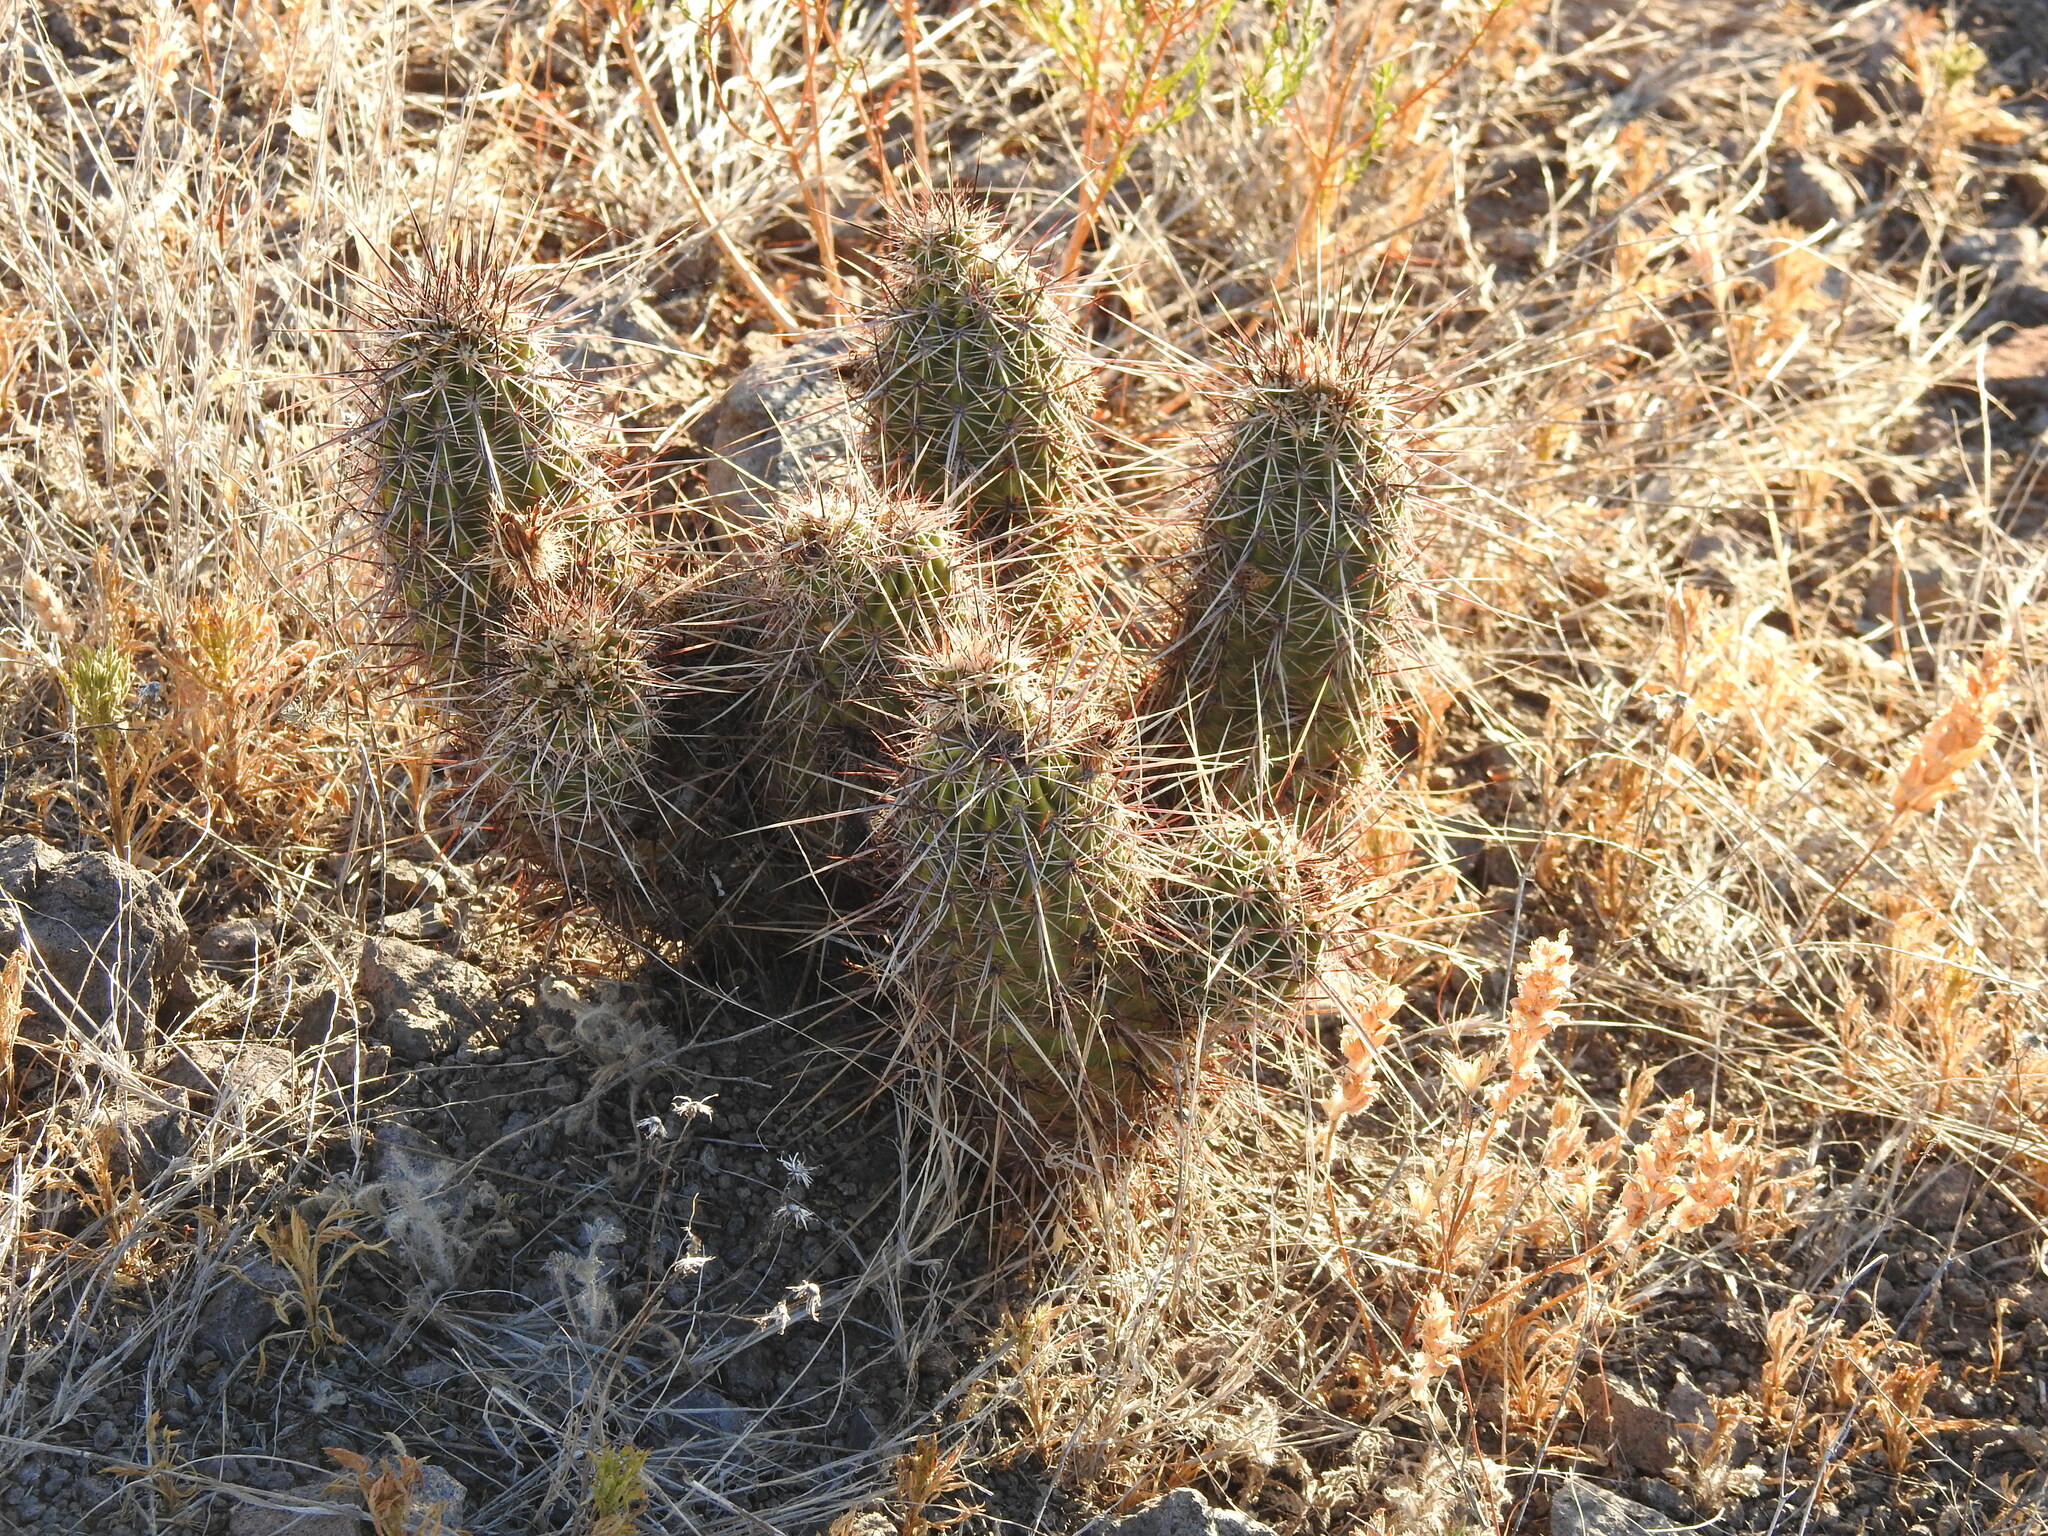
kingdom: Plantae
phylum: Tracheophyta
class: Magnoliopsida
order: Caryophyllales
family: Cactaceae
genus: Echinocereus
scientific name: Echinocereus fasciculatus
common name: Bundle hedgehog
